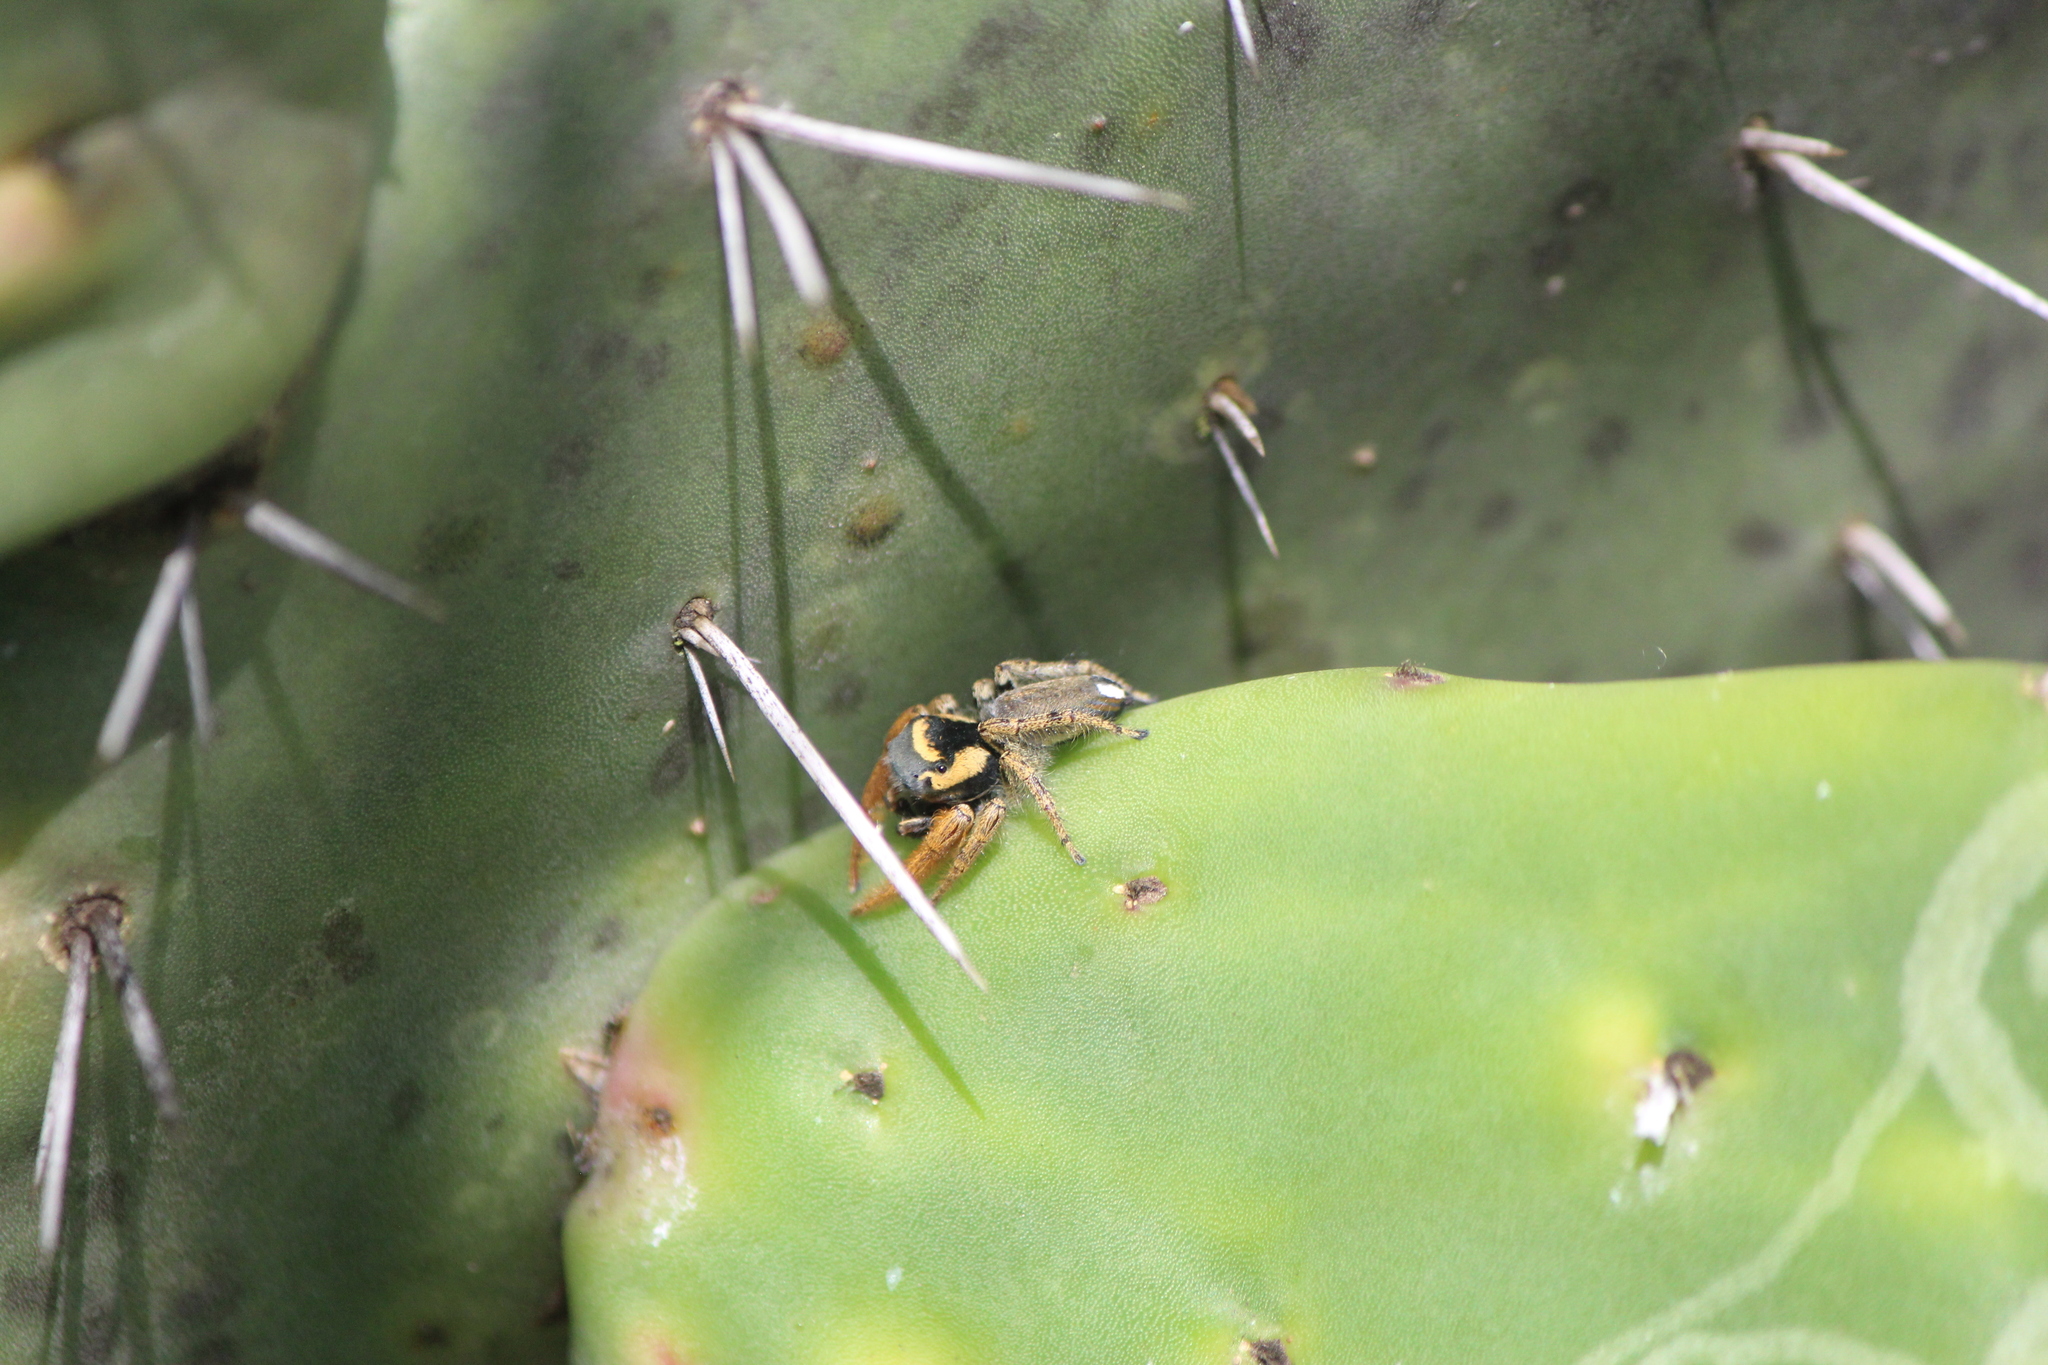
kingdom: Animalia
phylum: Arthropoda
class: Arachnida
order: Araneae
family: Salticidae
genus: Phidippus
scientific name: Phidippus arizonensis
